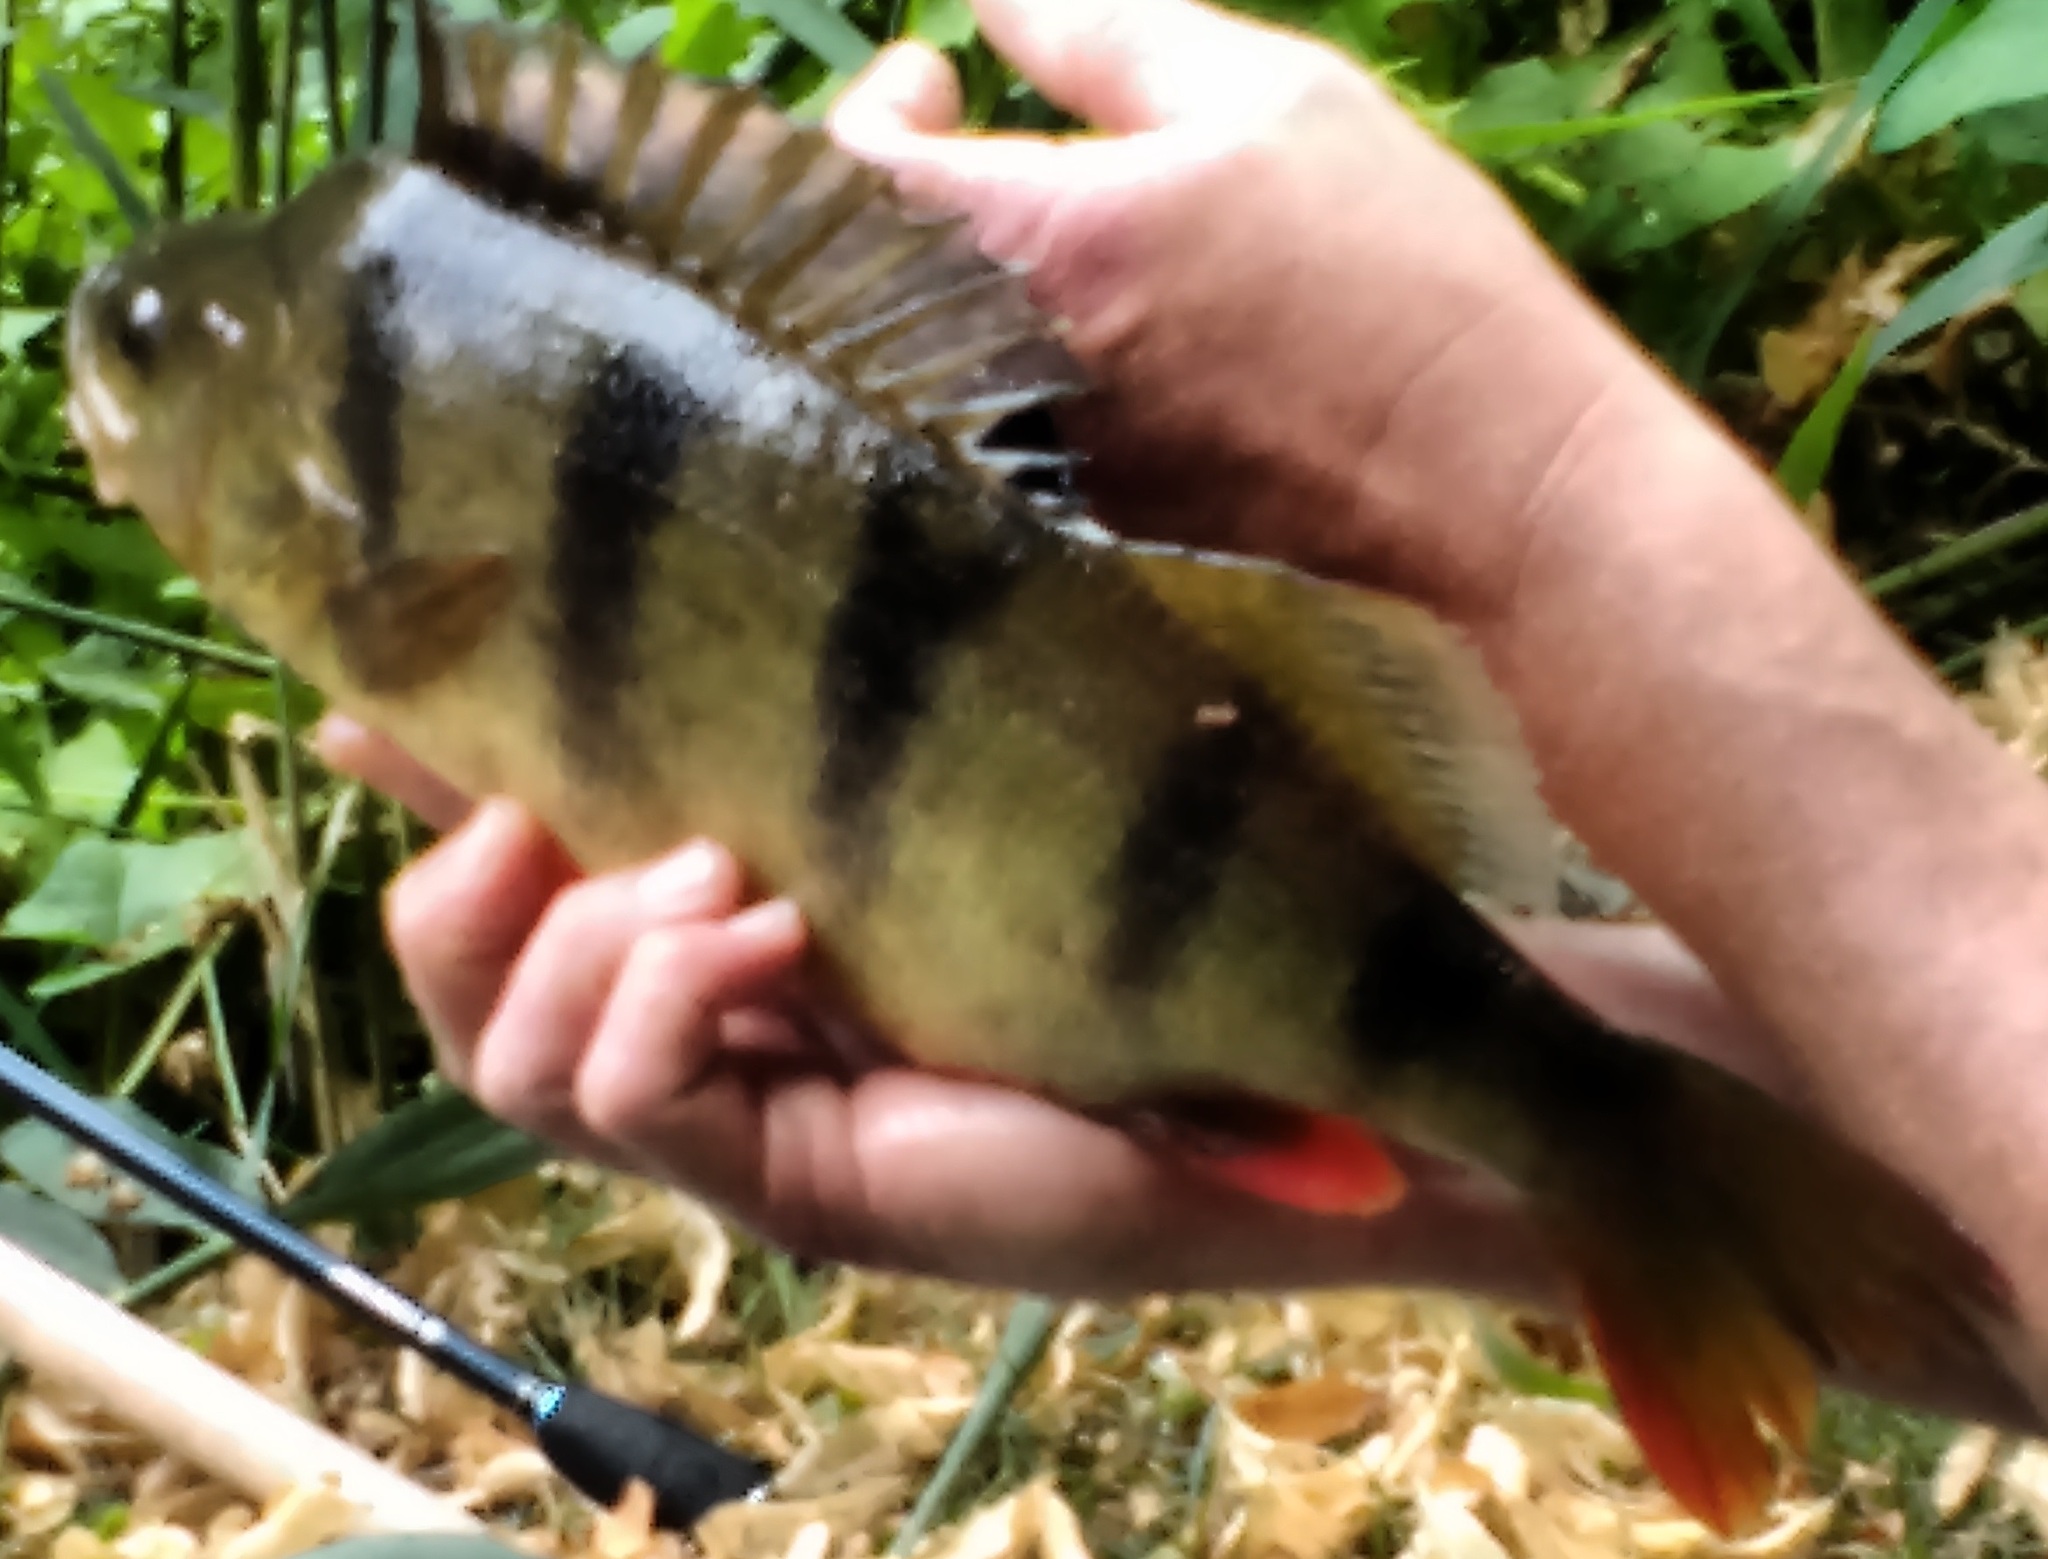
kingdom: Animalia
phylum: Chordata
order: Perciformes
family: Percidae
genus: Perca
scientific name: Perca fluviatilis
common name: Perch
